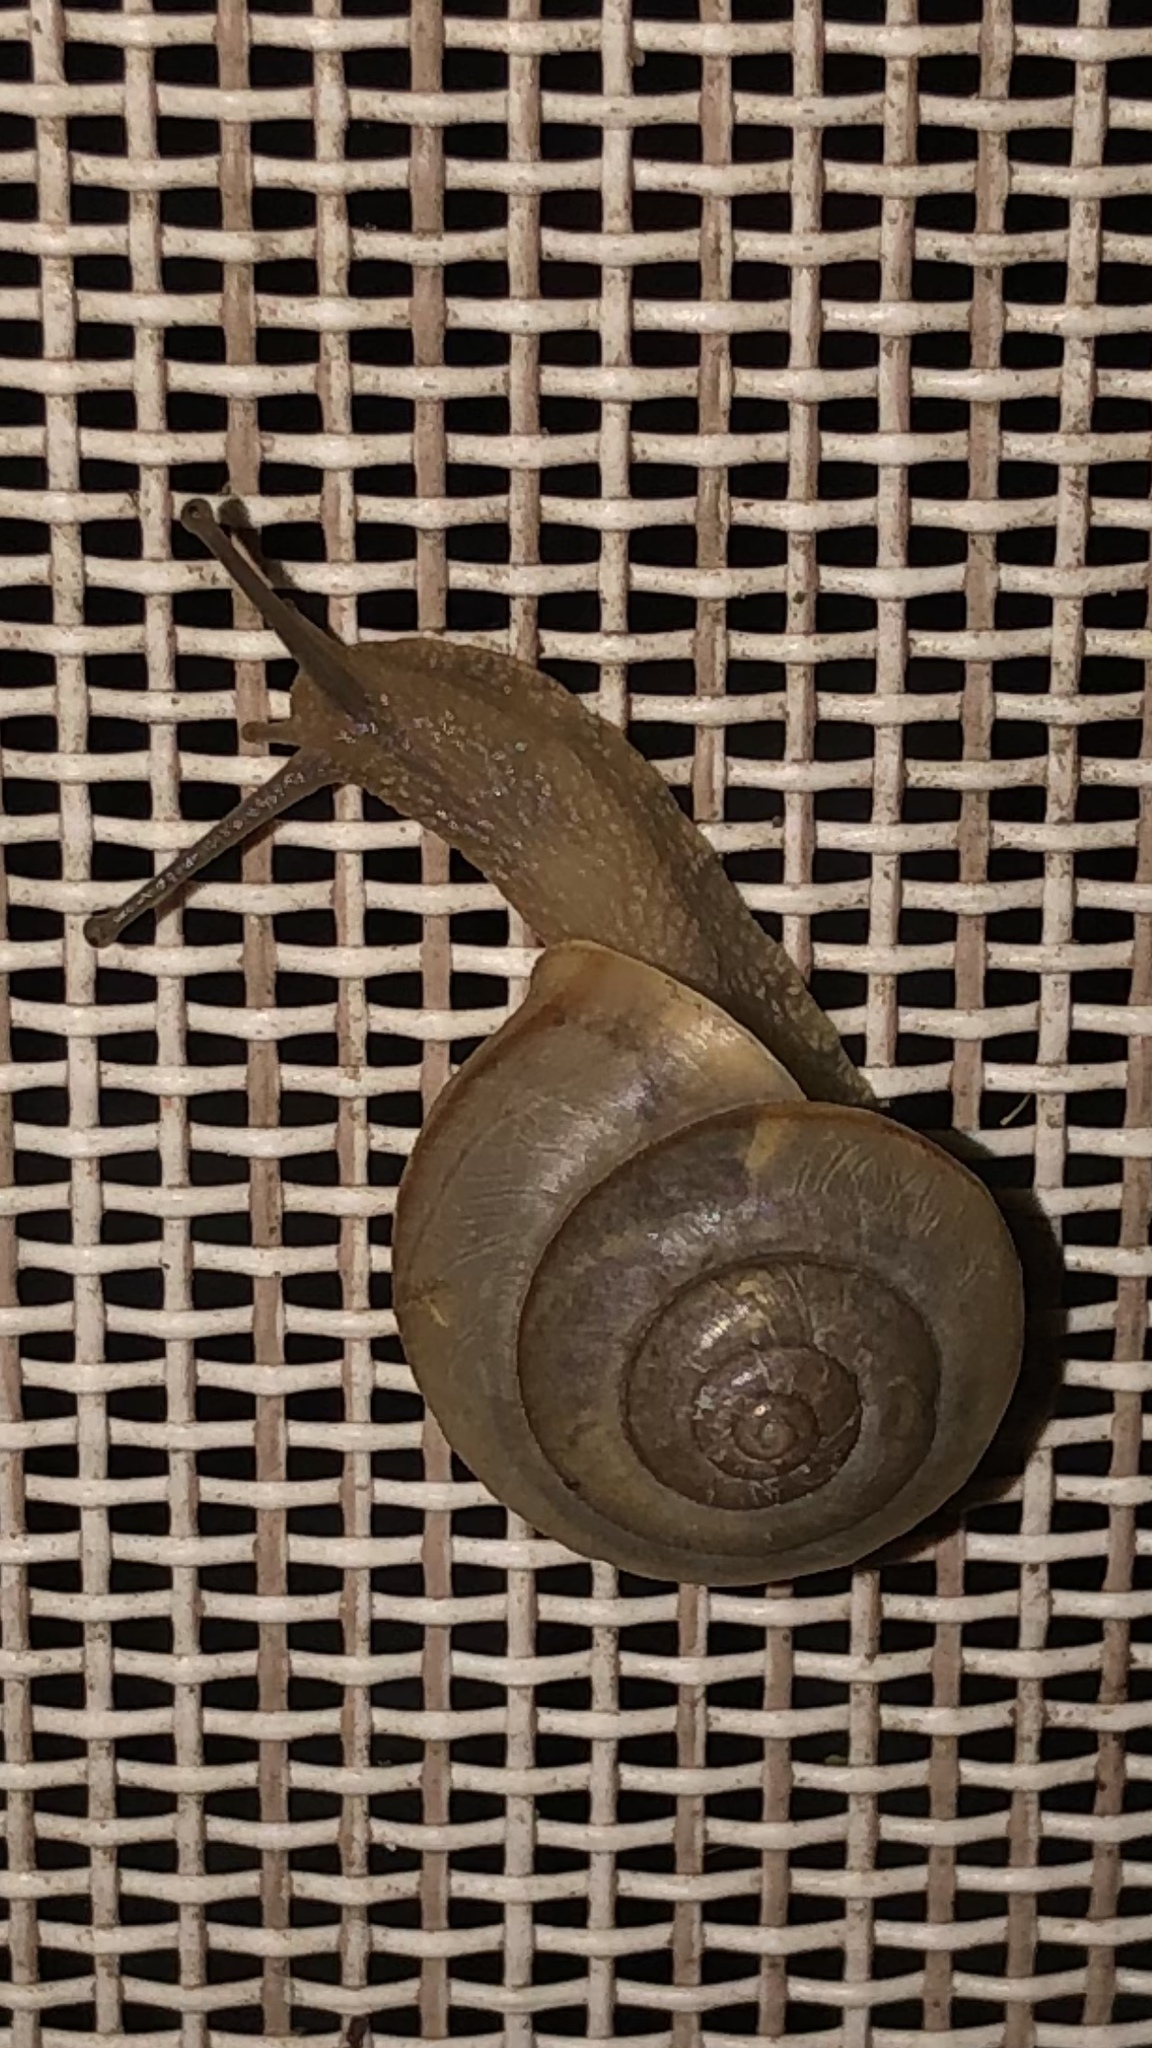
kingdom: Animalia
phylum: Mollusca
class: Gastropoda
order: Stylommatophora
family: Camaenidae
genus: Bradybaena
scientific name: Bradybaena similaris
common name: Asian trampsnail
